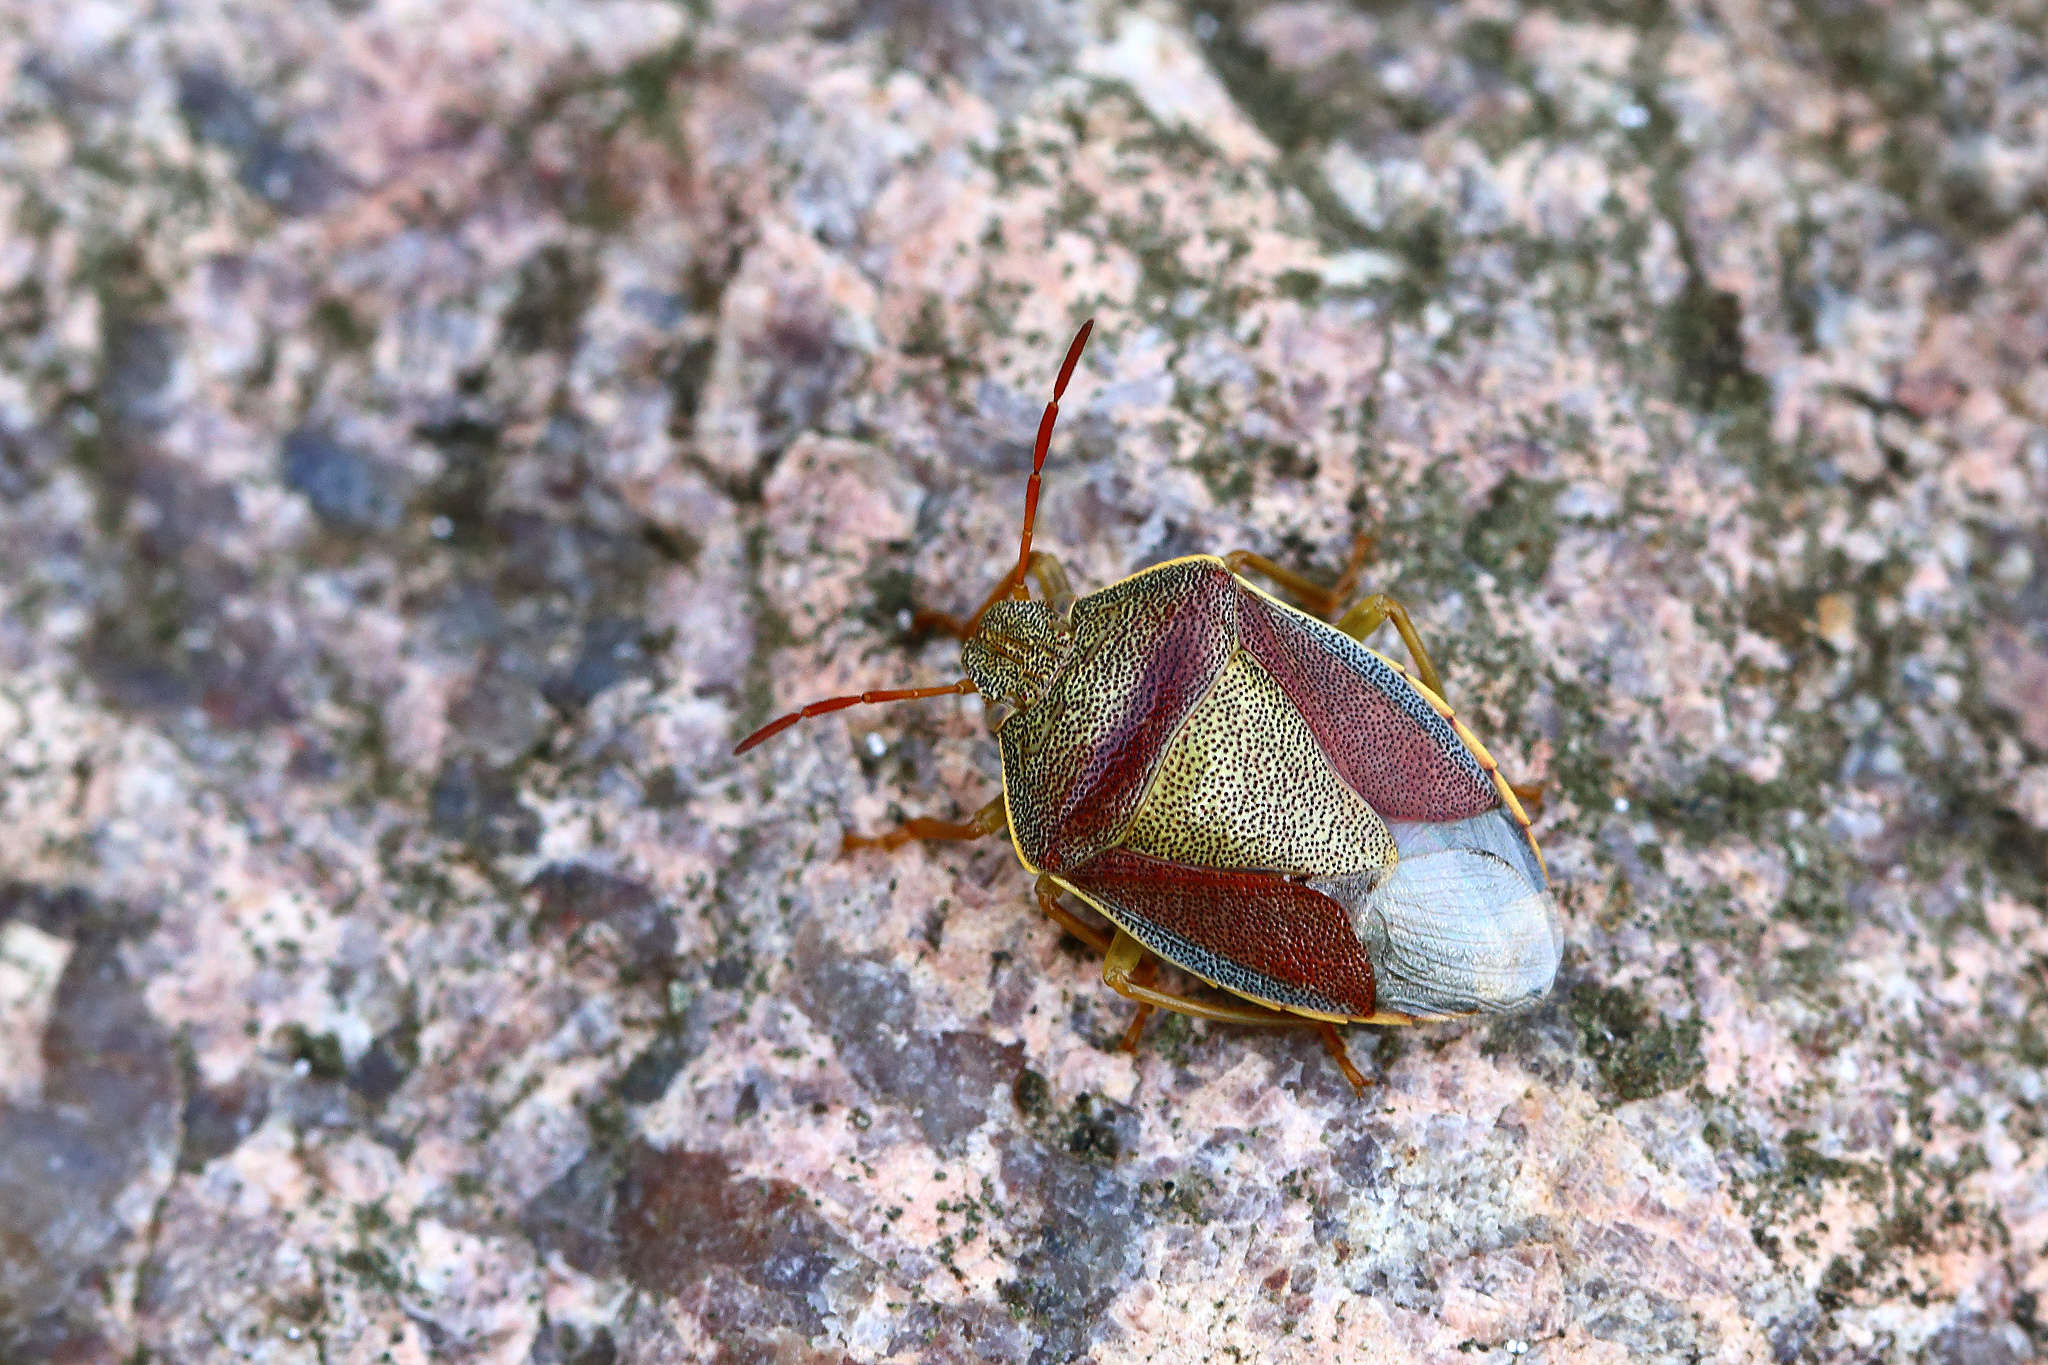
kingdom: Animalia
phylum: Arthropoda
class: Insecta
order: Hemiptera
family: Pentatomidae
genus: Piezodorus
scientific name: Piezodorus lituratus
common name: Stink bug
